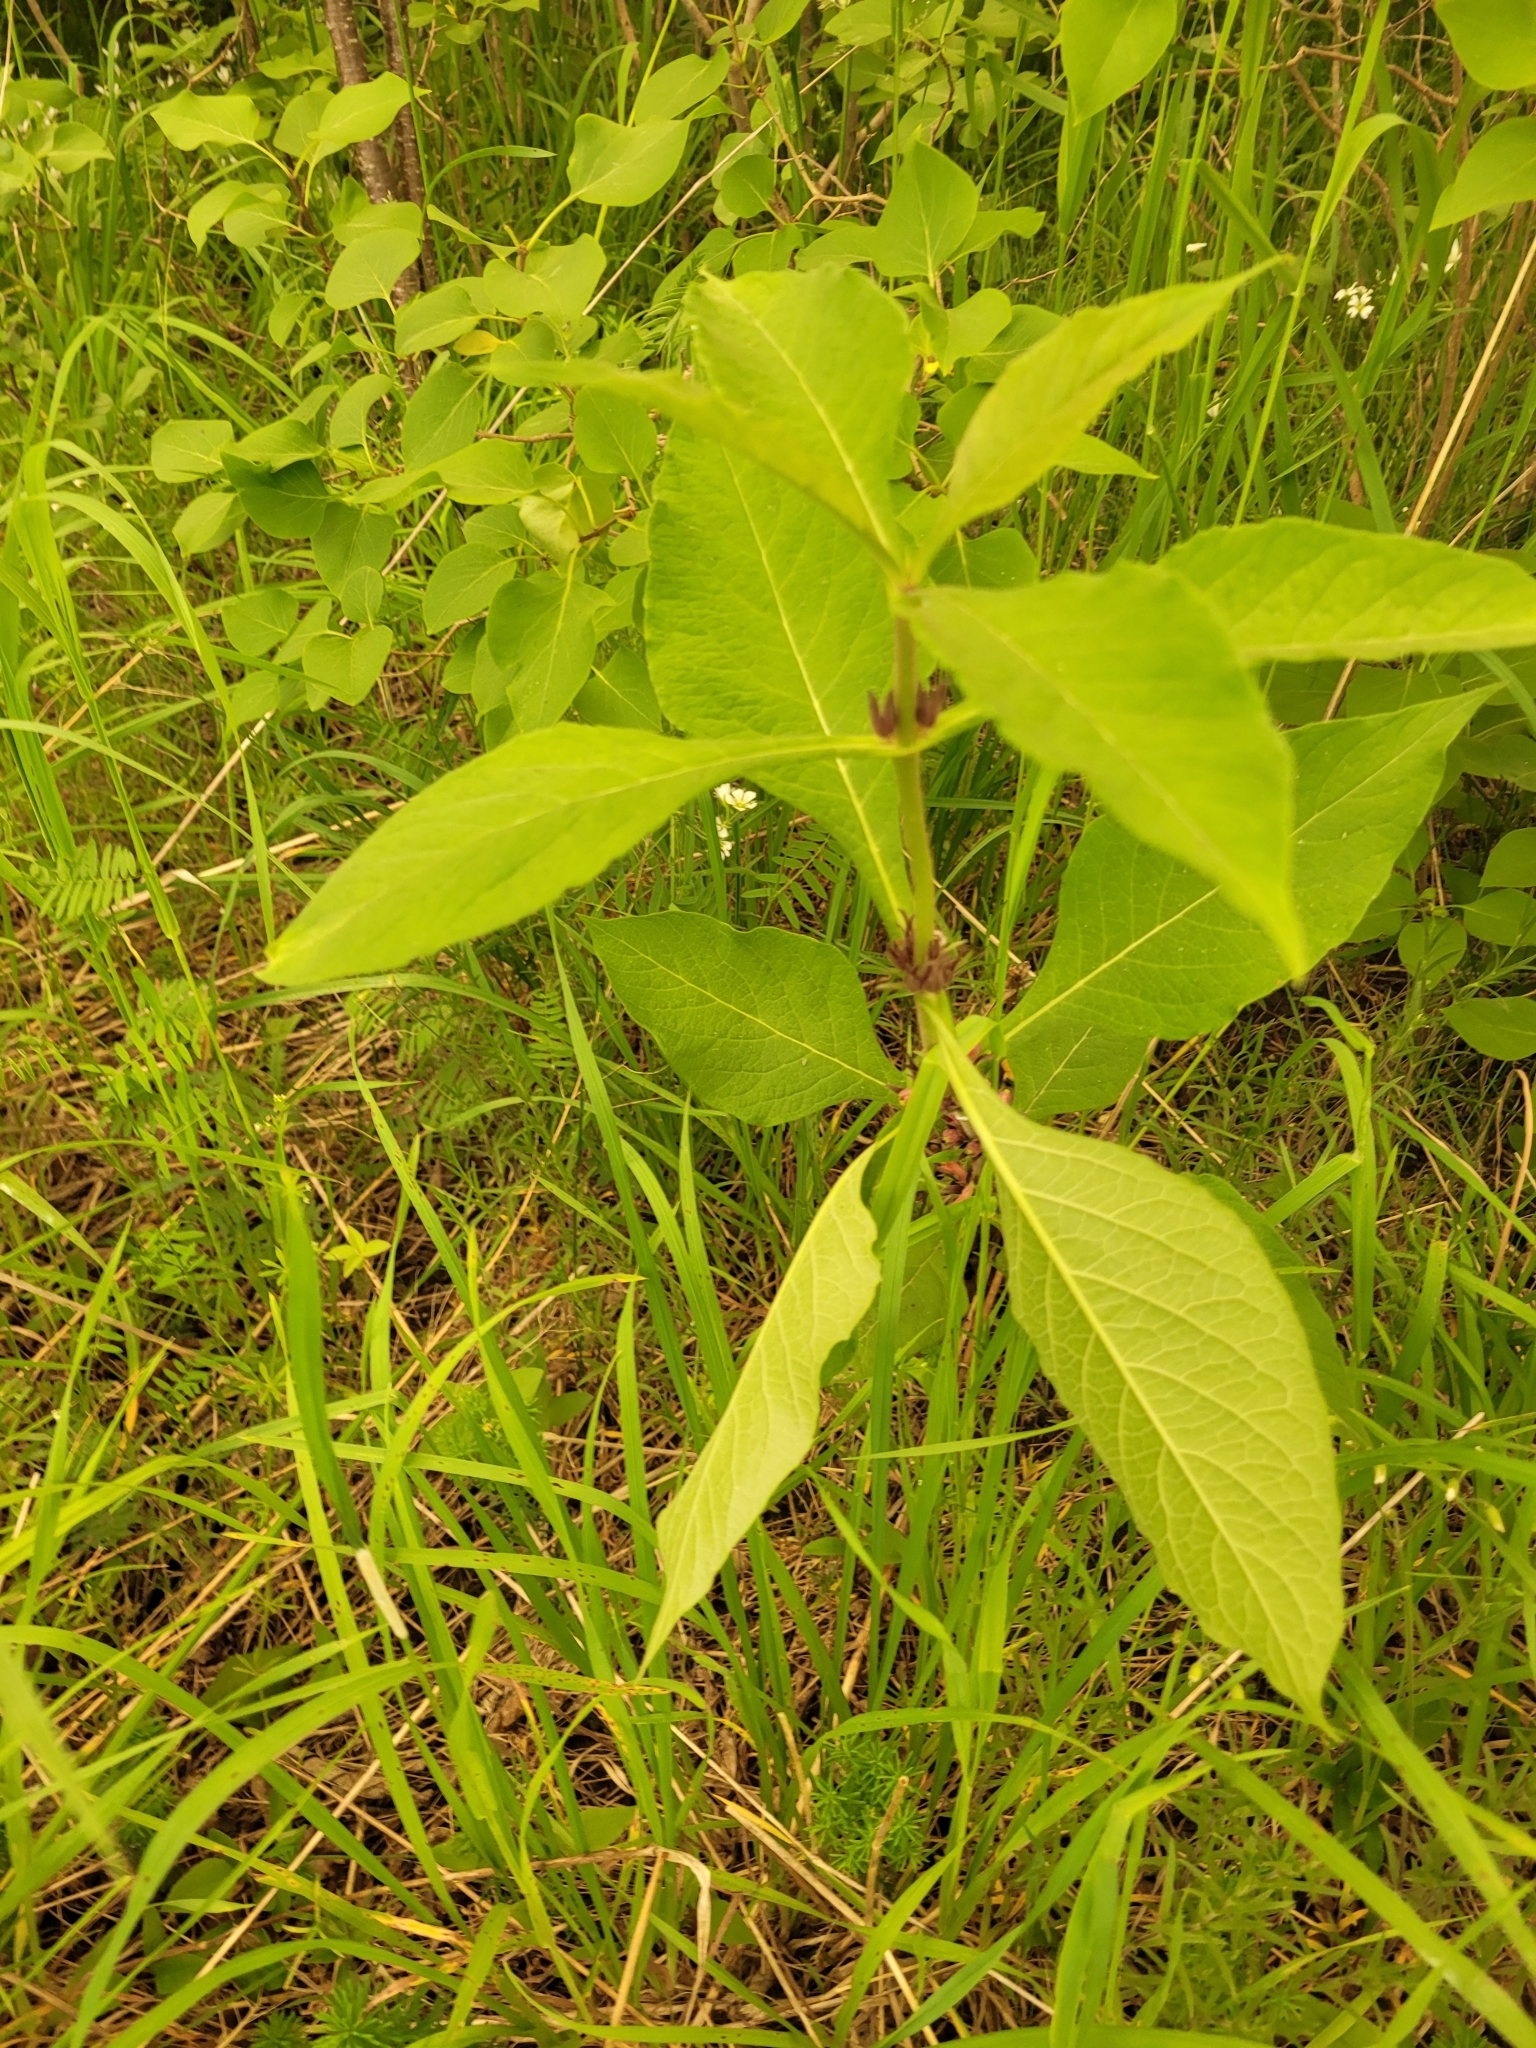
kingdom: Plantae
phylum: Tracheophyta
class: Magnoliopsida
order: Dipsacales
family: Caprifoliaceae
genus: Triosteum
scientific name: Triosteum aurantiacum
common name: Coffee tinker's-weed
